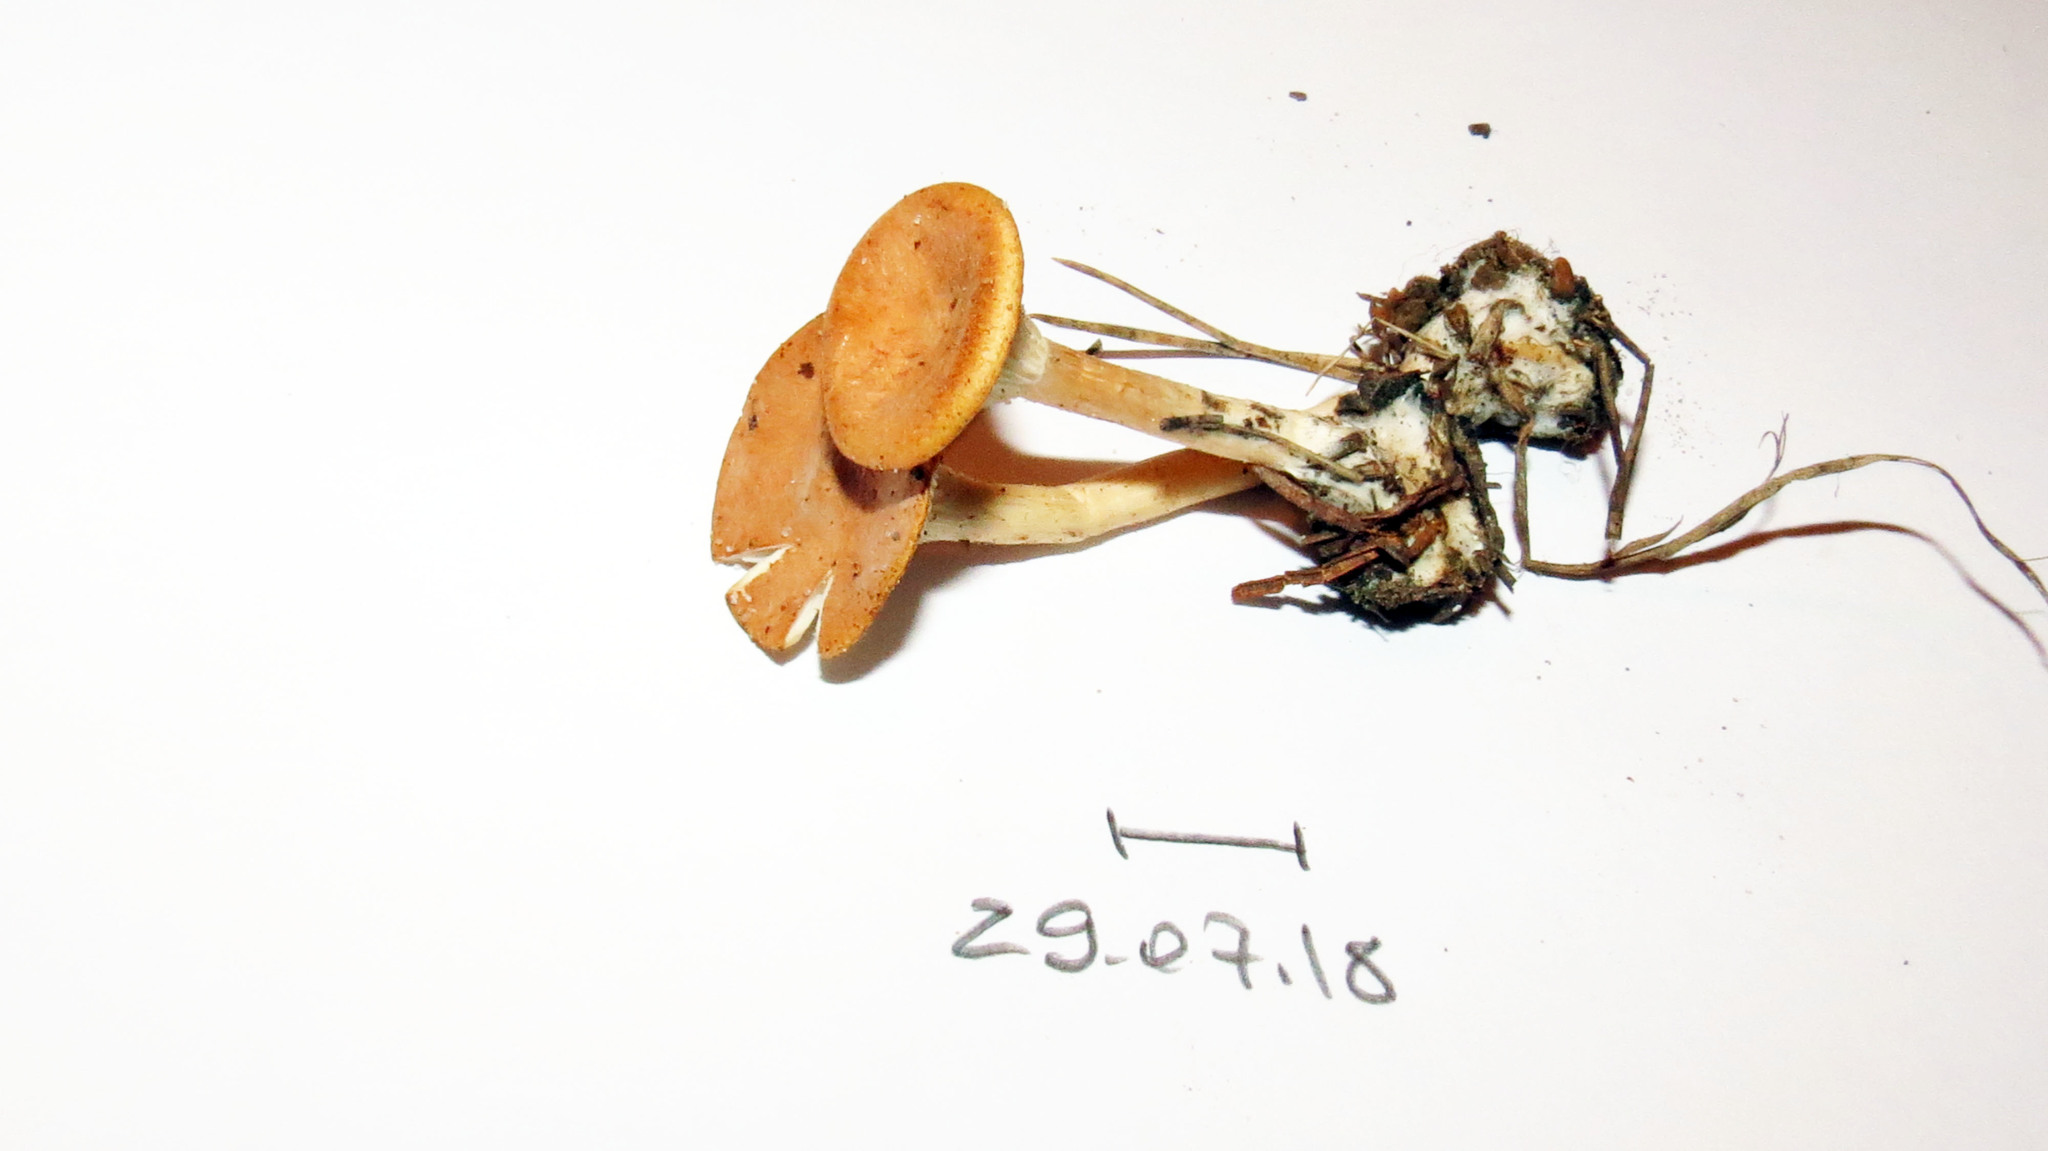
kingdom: Fungi
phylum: Basidiomycota
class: Agaricomycetes
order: Agaricales
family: Tricholomataceae
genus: Infundibulicybe
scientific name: Infundibulicybe gibba
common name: Common funnel
